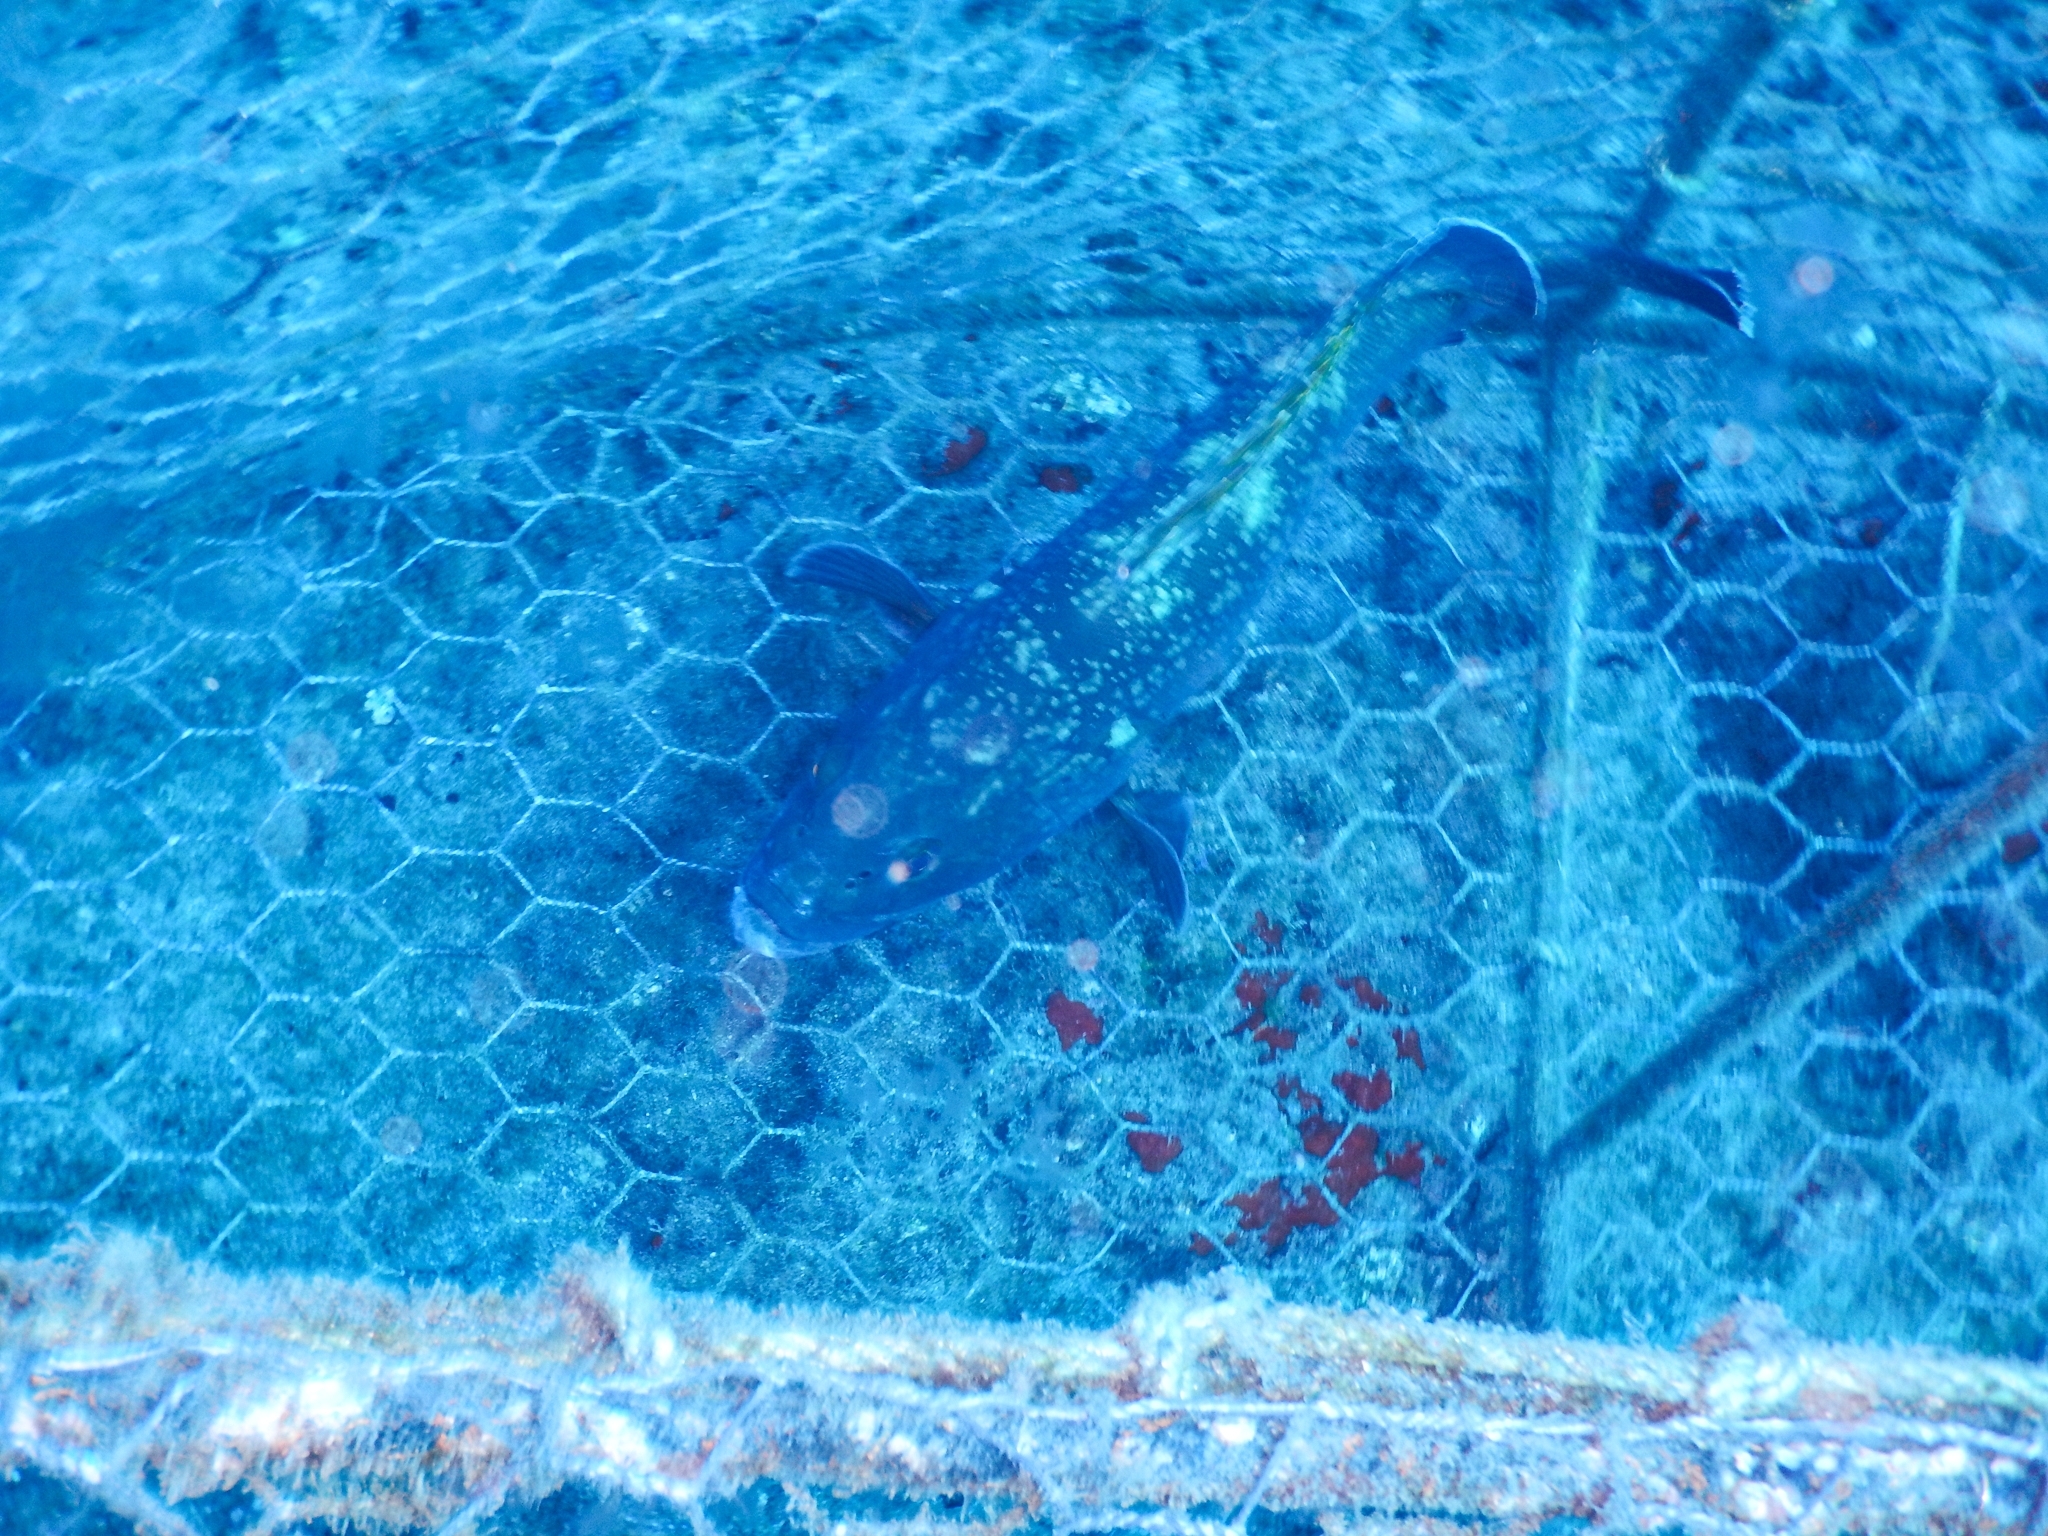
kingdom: Animalia
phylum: Chordata
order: Perciformes
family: Serranidae
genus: Epinephelus
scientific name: Epinephelus marginatus
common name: Dusky grouper
